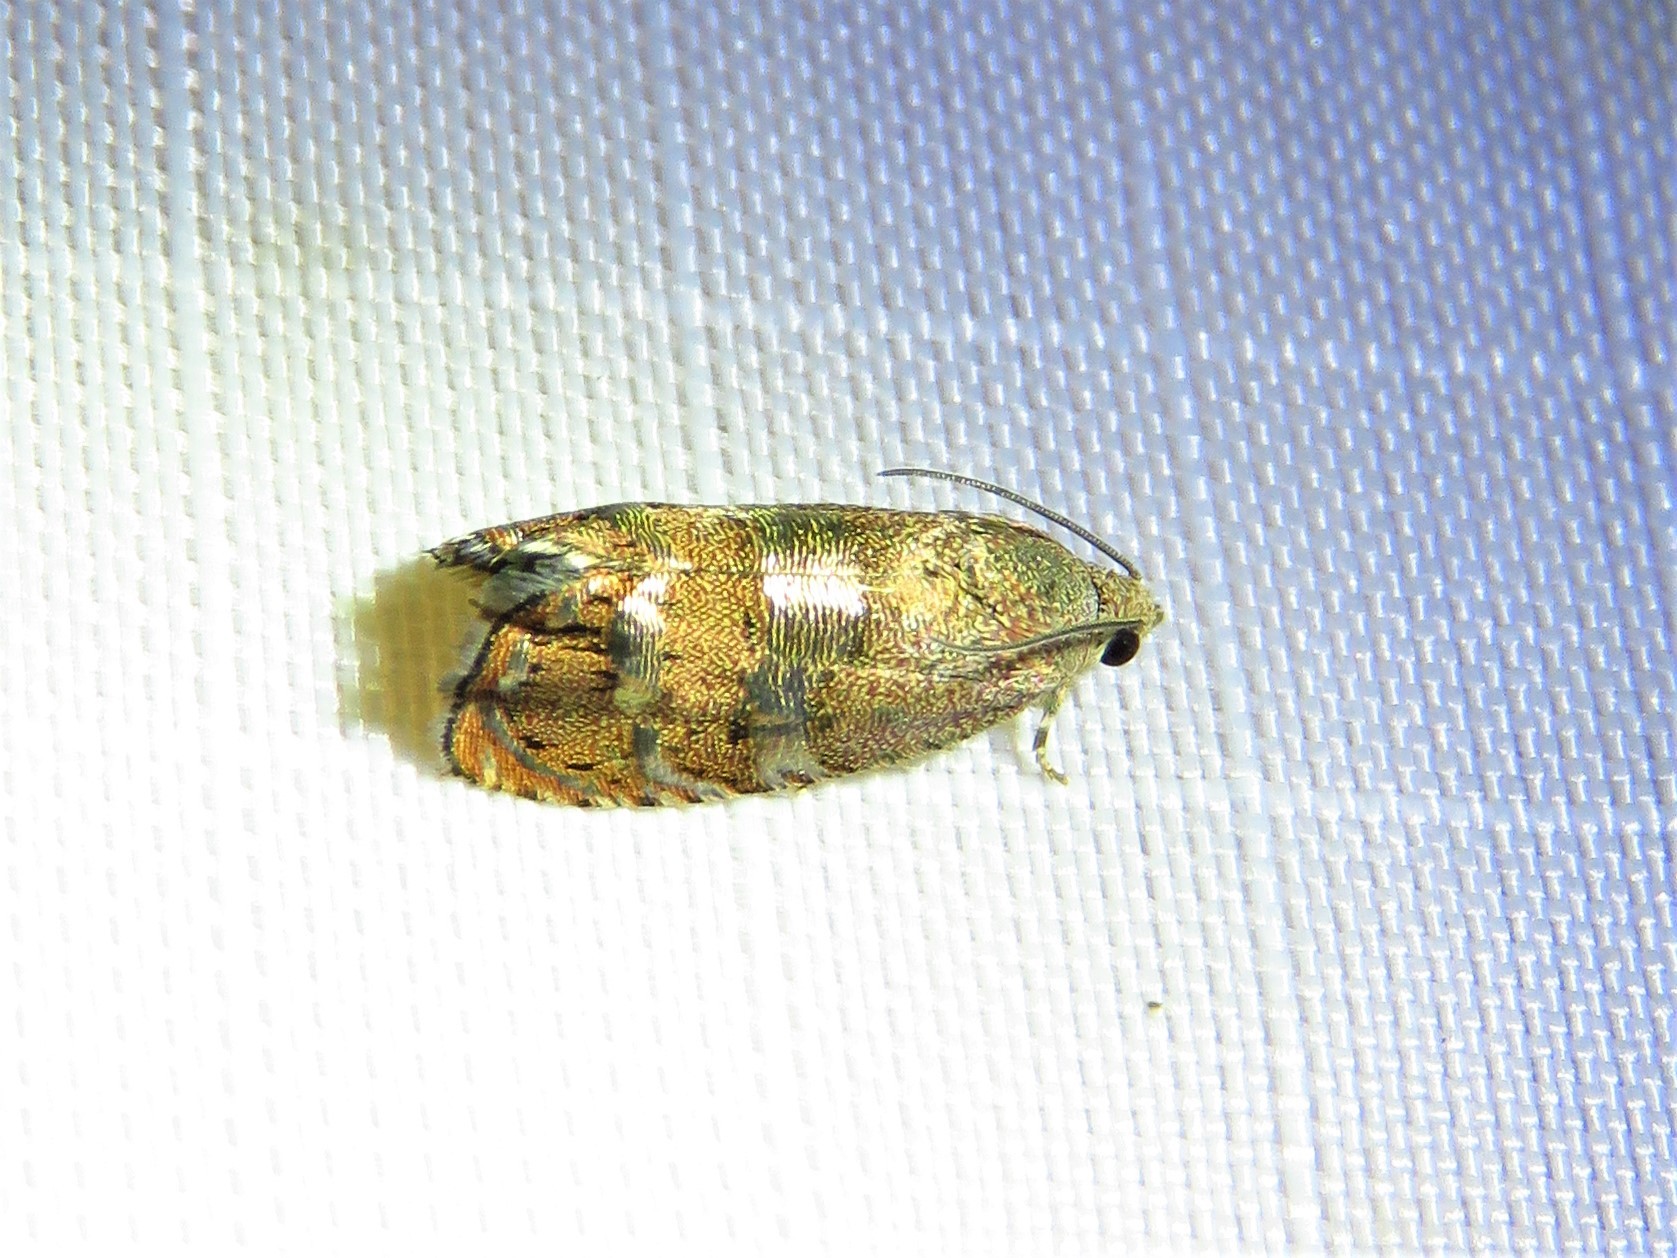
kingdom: Animalia
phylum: Arthropoda
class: Insecta
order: Lepidoptera
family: Tortricidae
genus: Cydia
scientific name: Cydia latiferreana
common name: Filbertworm moth
